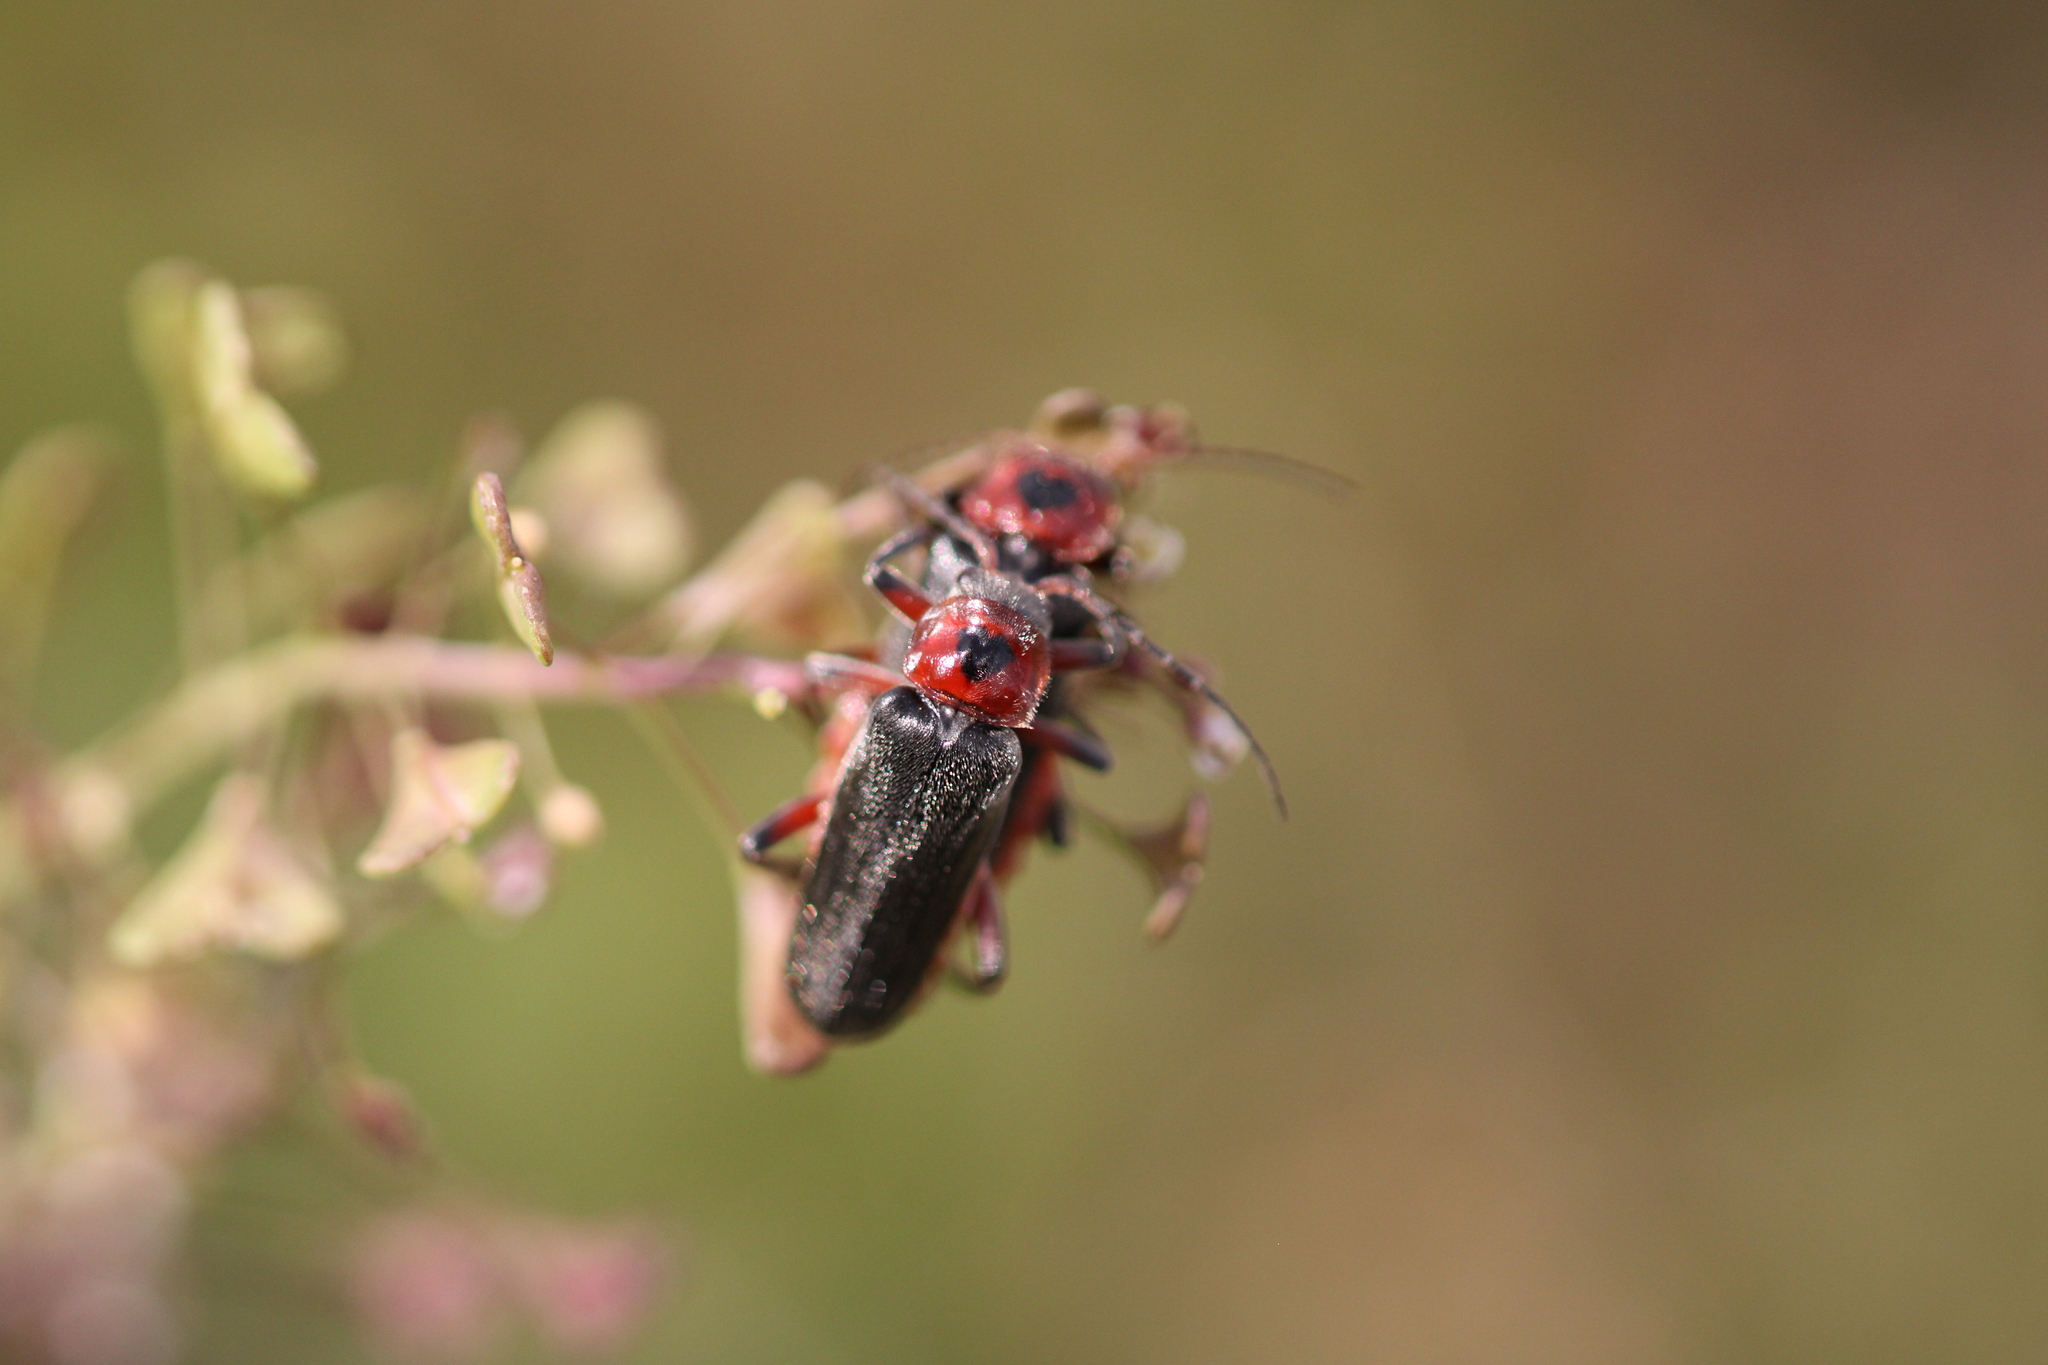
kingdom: Animalia
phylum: Arthropoda
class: Insecta
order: Coleoptera
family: Cantharidae
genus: Cantharis
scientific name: Cantharis rustica
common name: Soldier beetle
